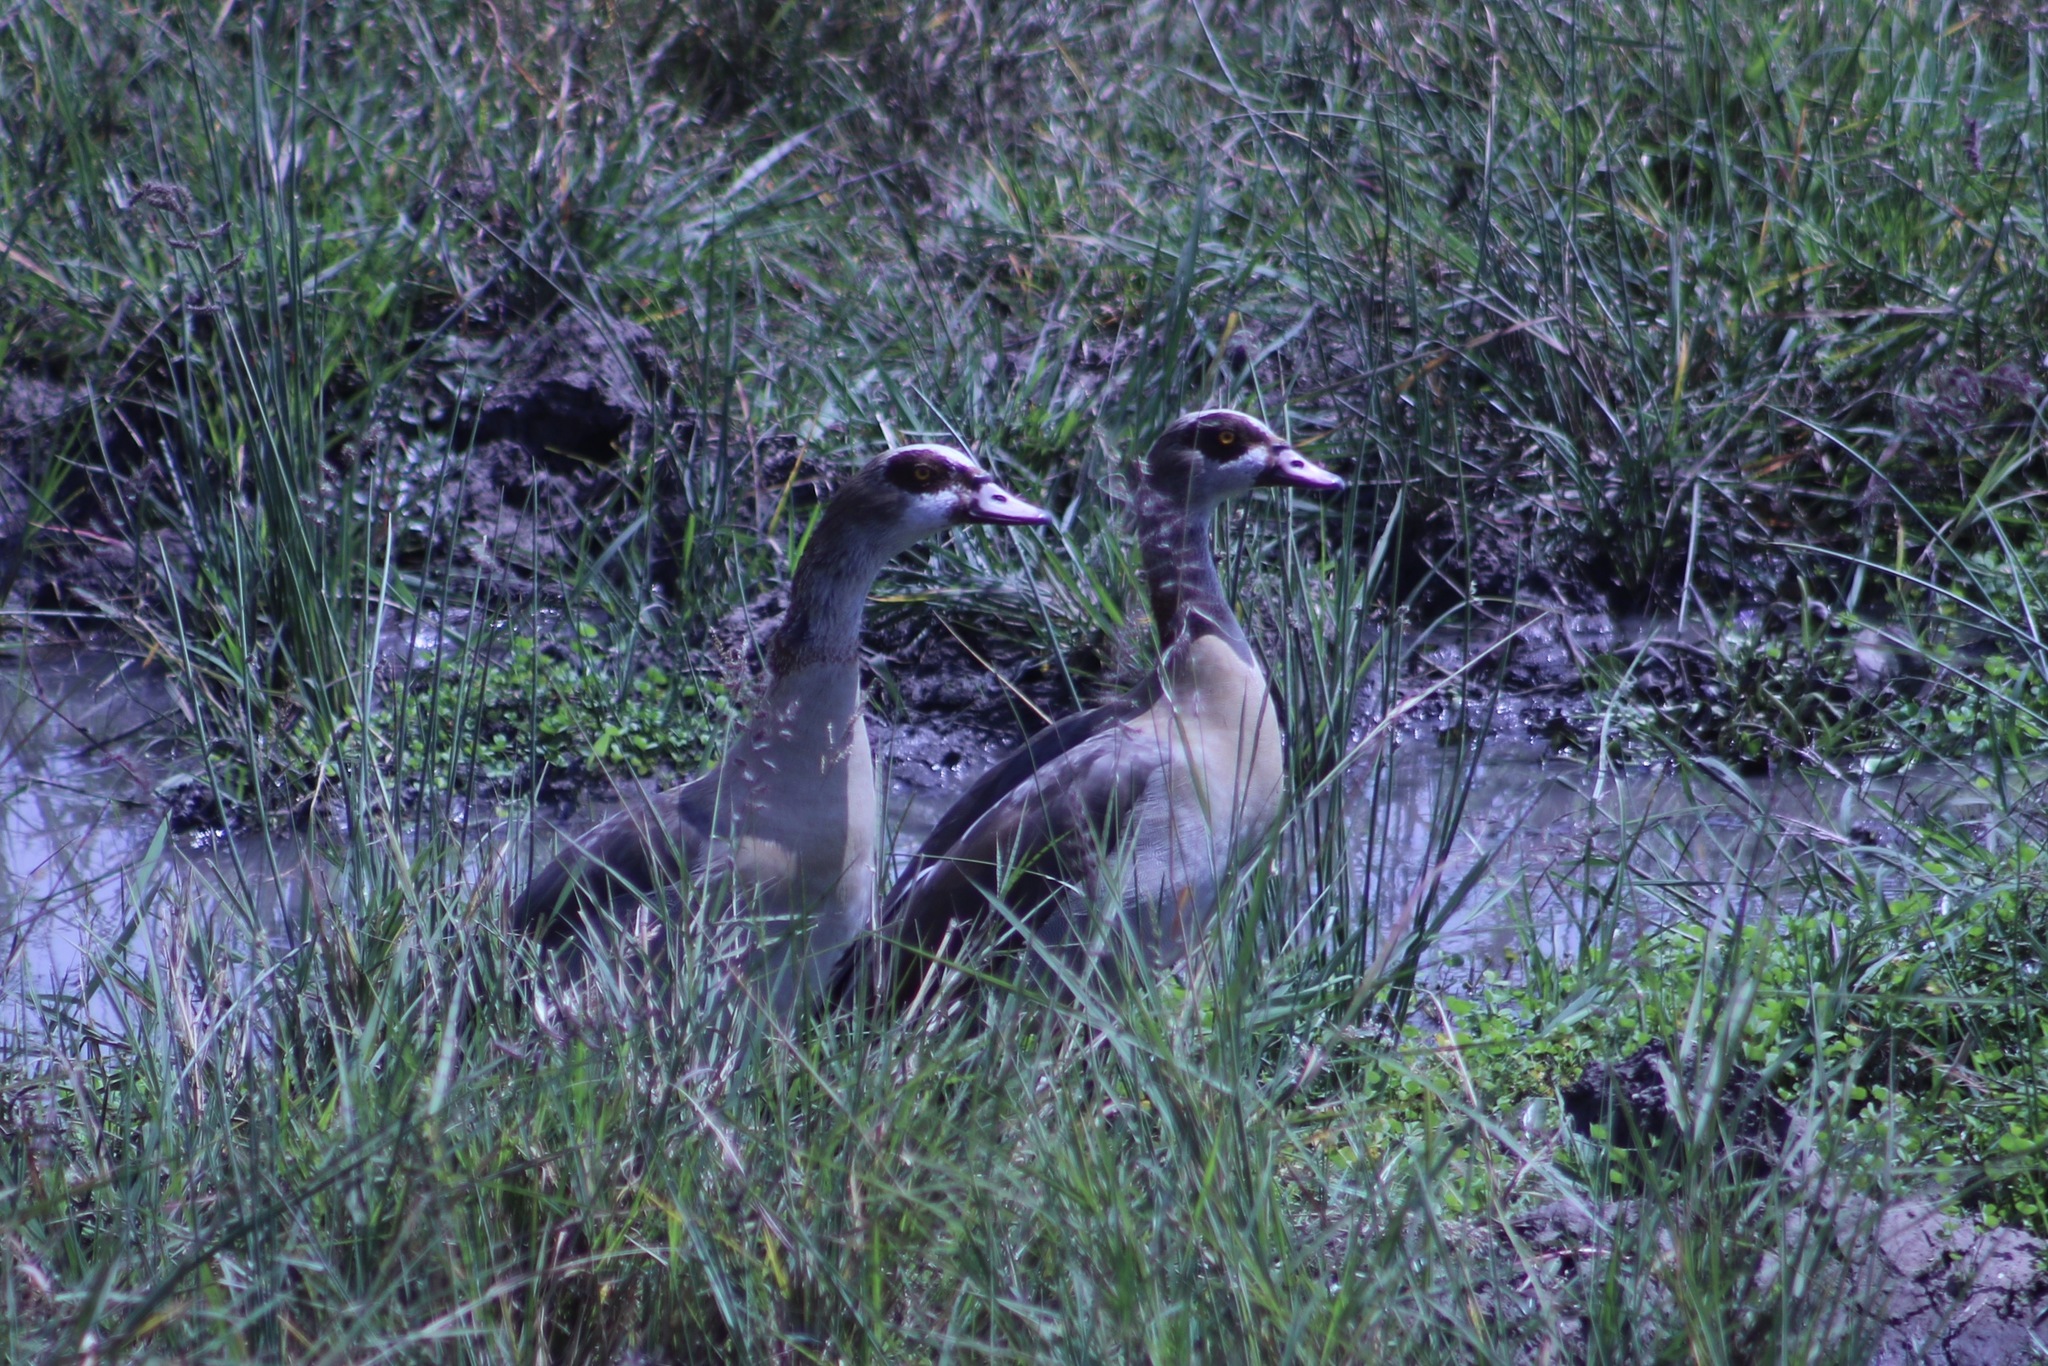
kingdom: Animalia
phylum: Chordata
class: Aves
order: Anseriformes
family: Anatidae
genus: Alopochen
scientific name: Alopochen aegyptiaca
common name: Egyptian goose
